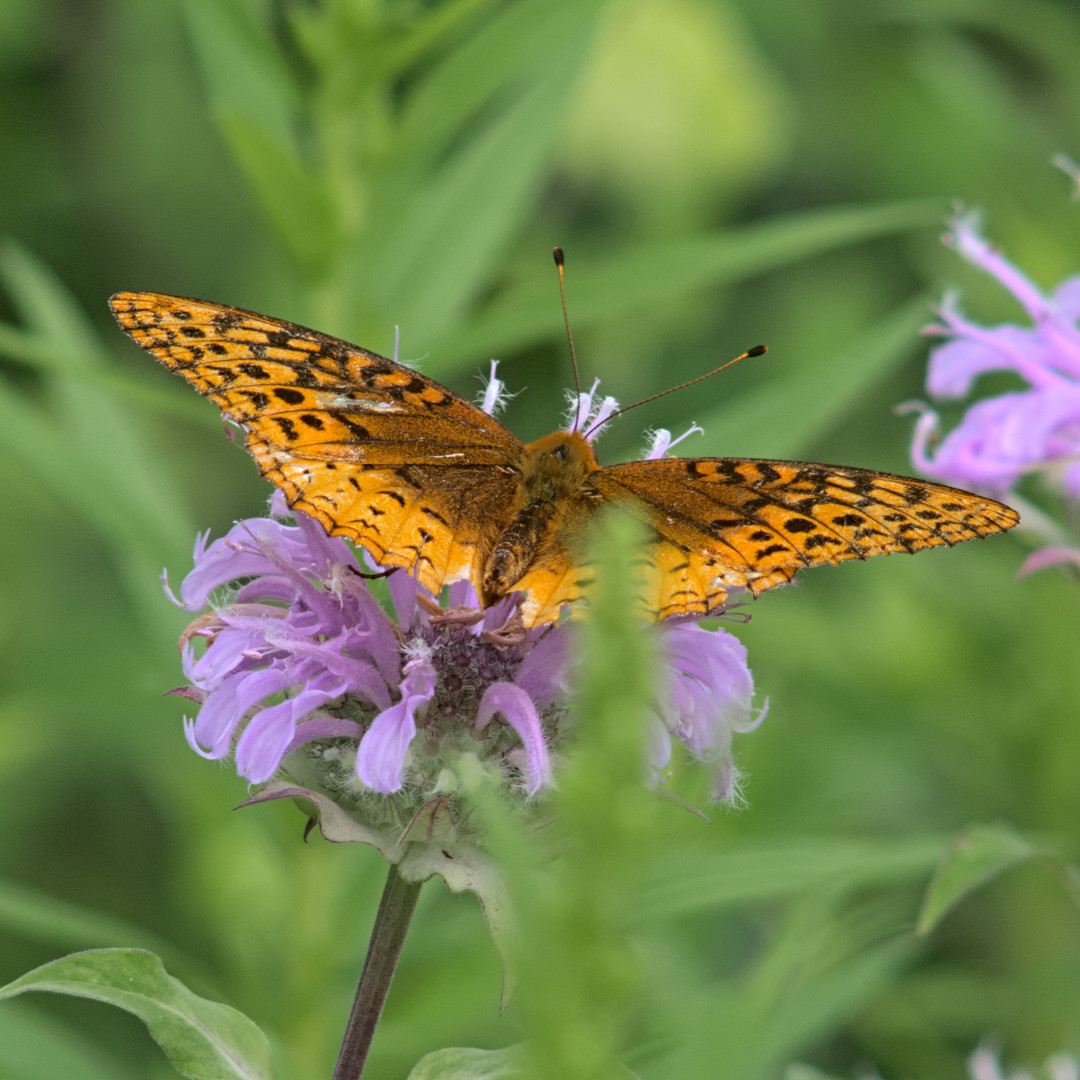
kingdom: Animalia
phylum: Arthropoda
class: Insecta
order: Lepidoptera
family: Nymphalidae
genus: Speyeria
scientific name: Speyeria cybele
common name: Great spangled fritillary
